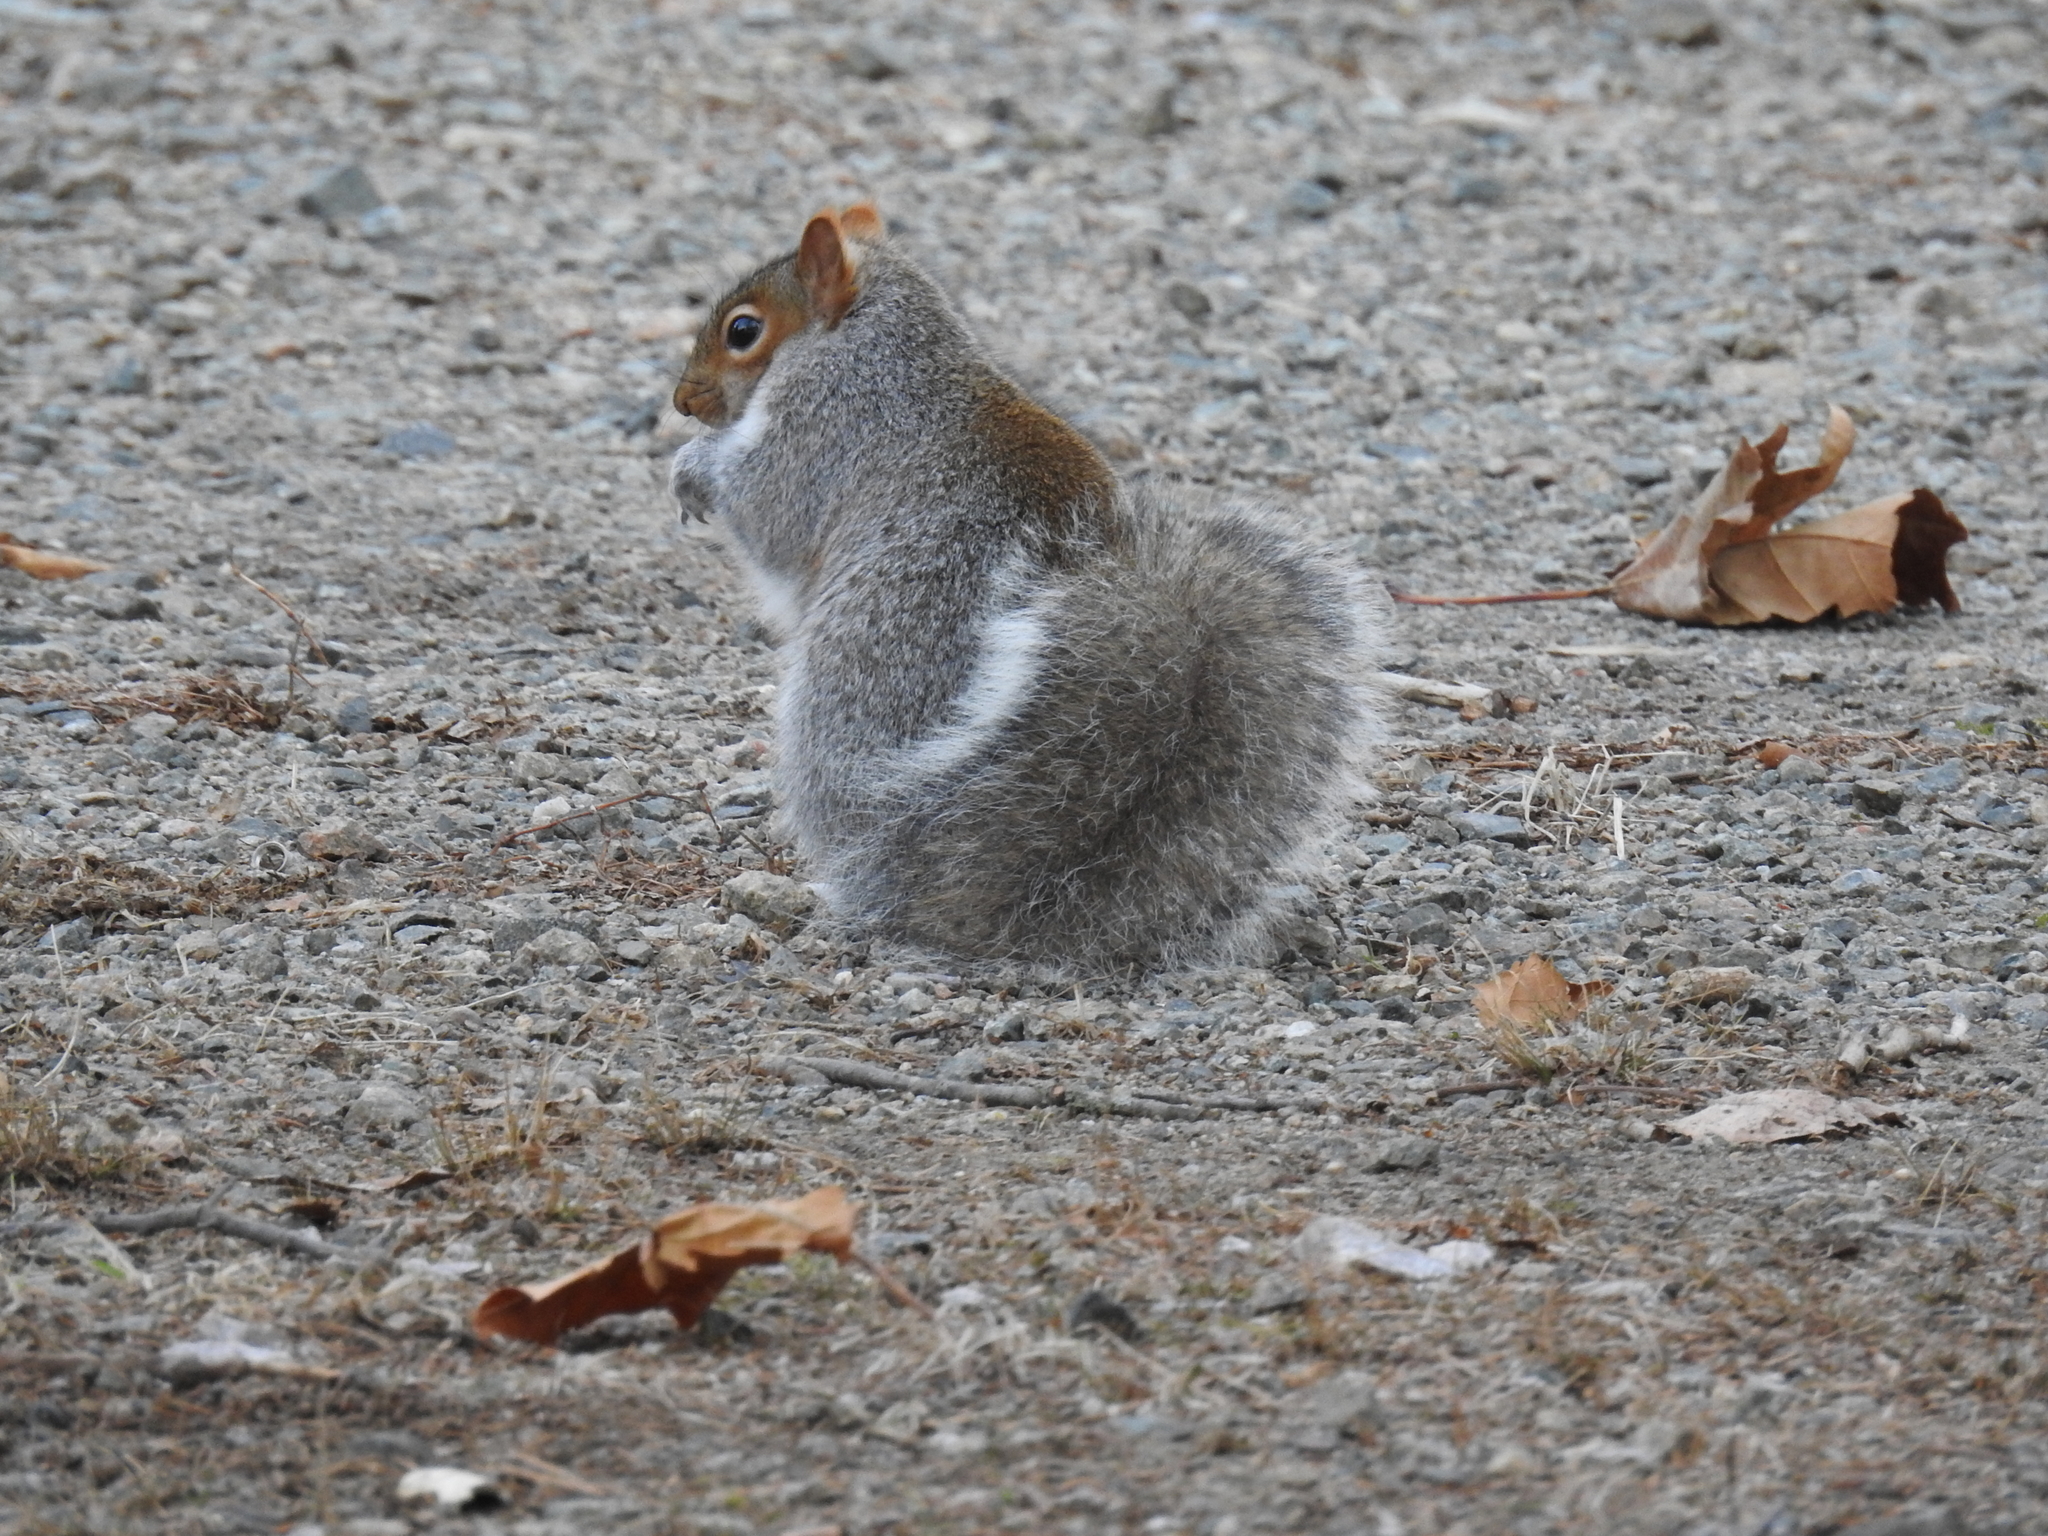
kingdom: Animalia
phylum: Chordata
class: Mammalia
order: Rodentia
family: Sciuridae
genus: Sciurus
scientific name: Sciurus carolinensis
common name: Eastern gray squirrel
